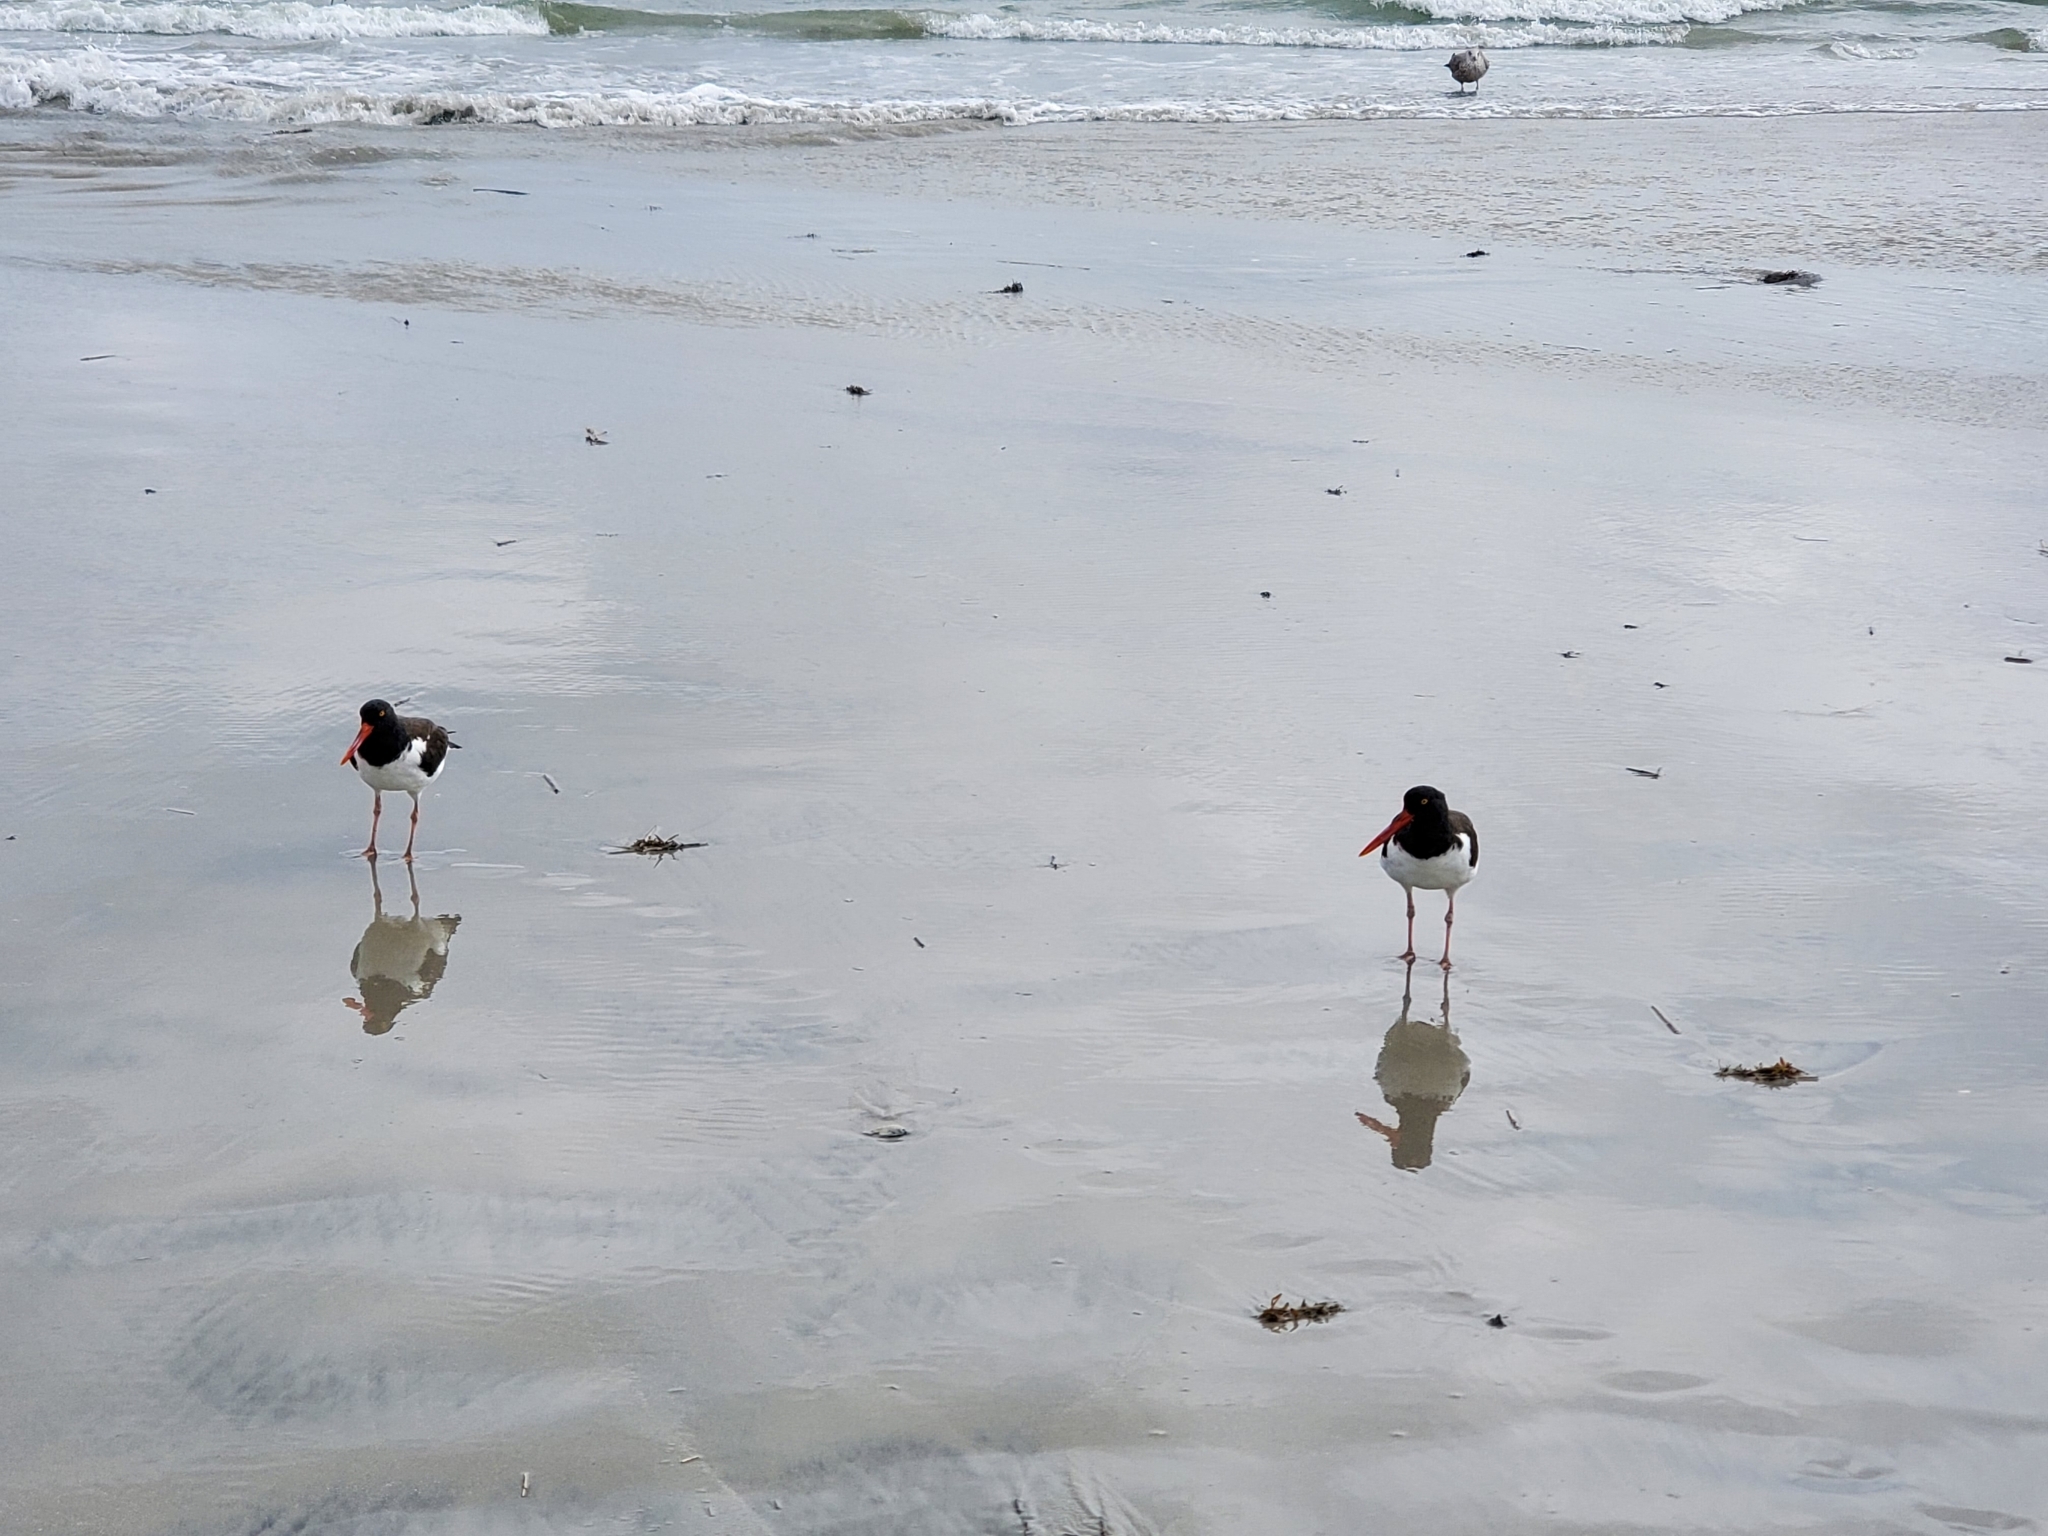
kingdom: Animalia
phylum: Chordata
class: Aves
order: Charadriiformes
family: Haematopodidae
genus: Haematopus
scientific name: Haematopus palliatus
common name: American oystercatcher
